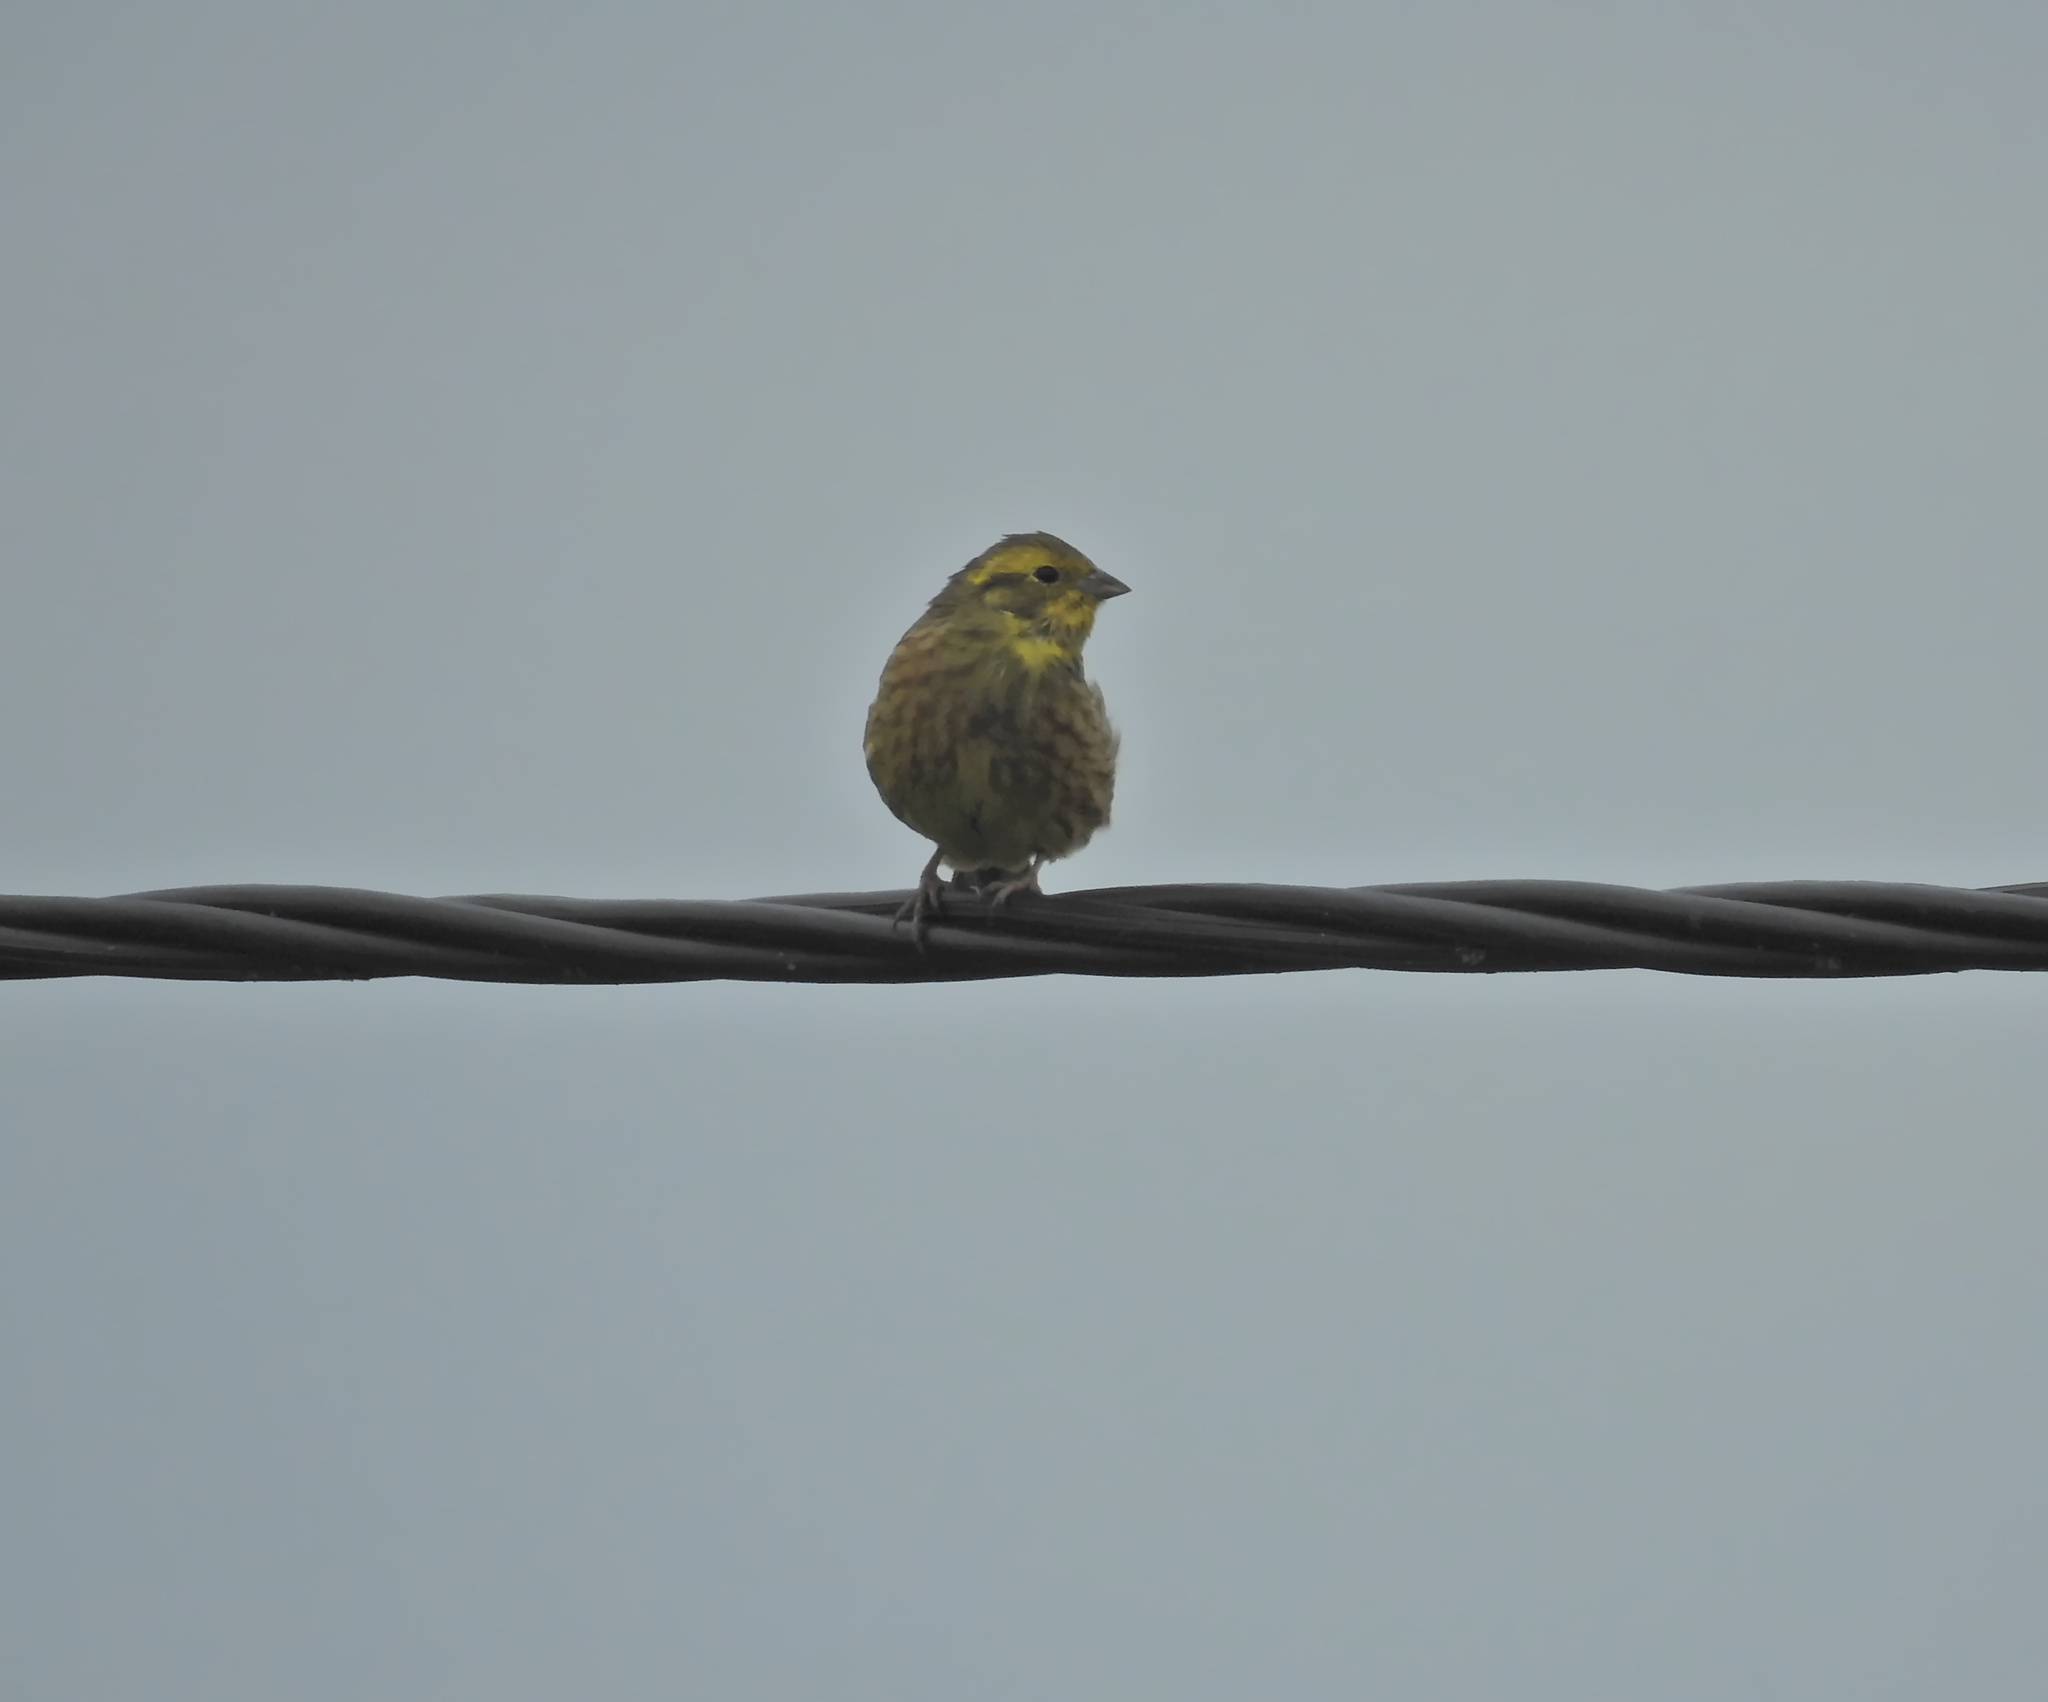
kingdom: Animalia
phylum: Chordata
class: Aves
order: Passeriformes
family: Emberizidae
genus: Emberiza
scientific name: Emberiza citrinella
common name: Yellowhammer
